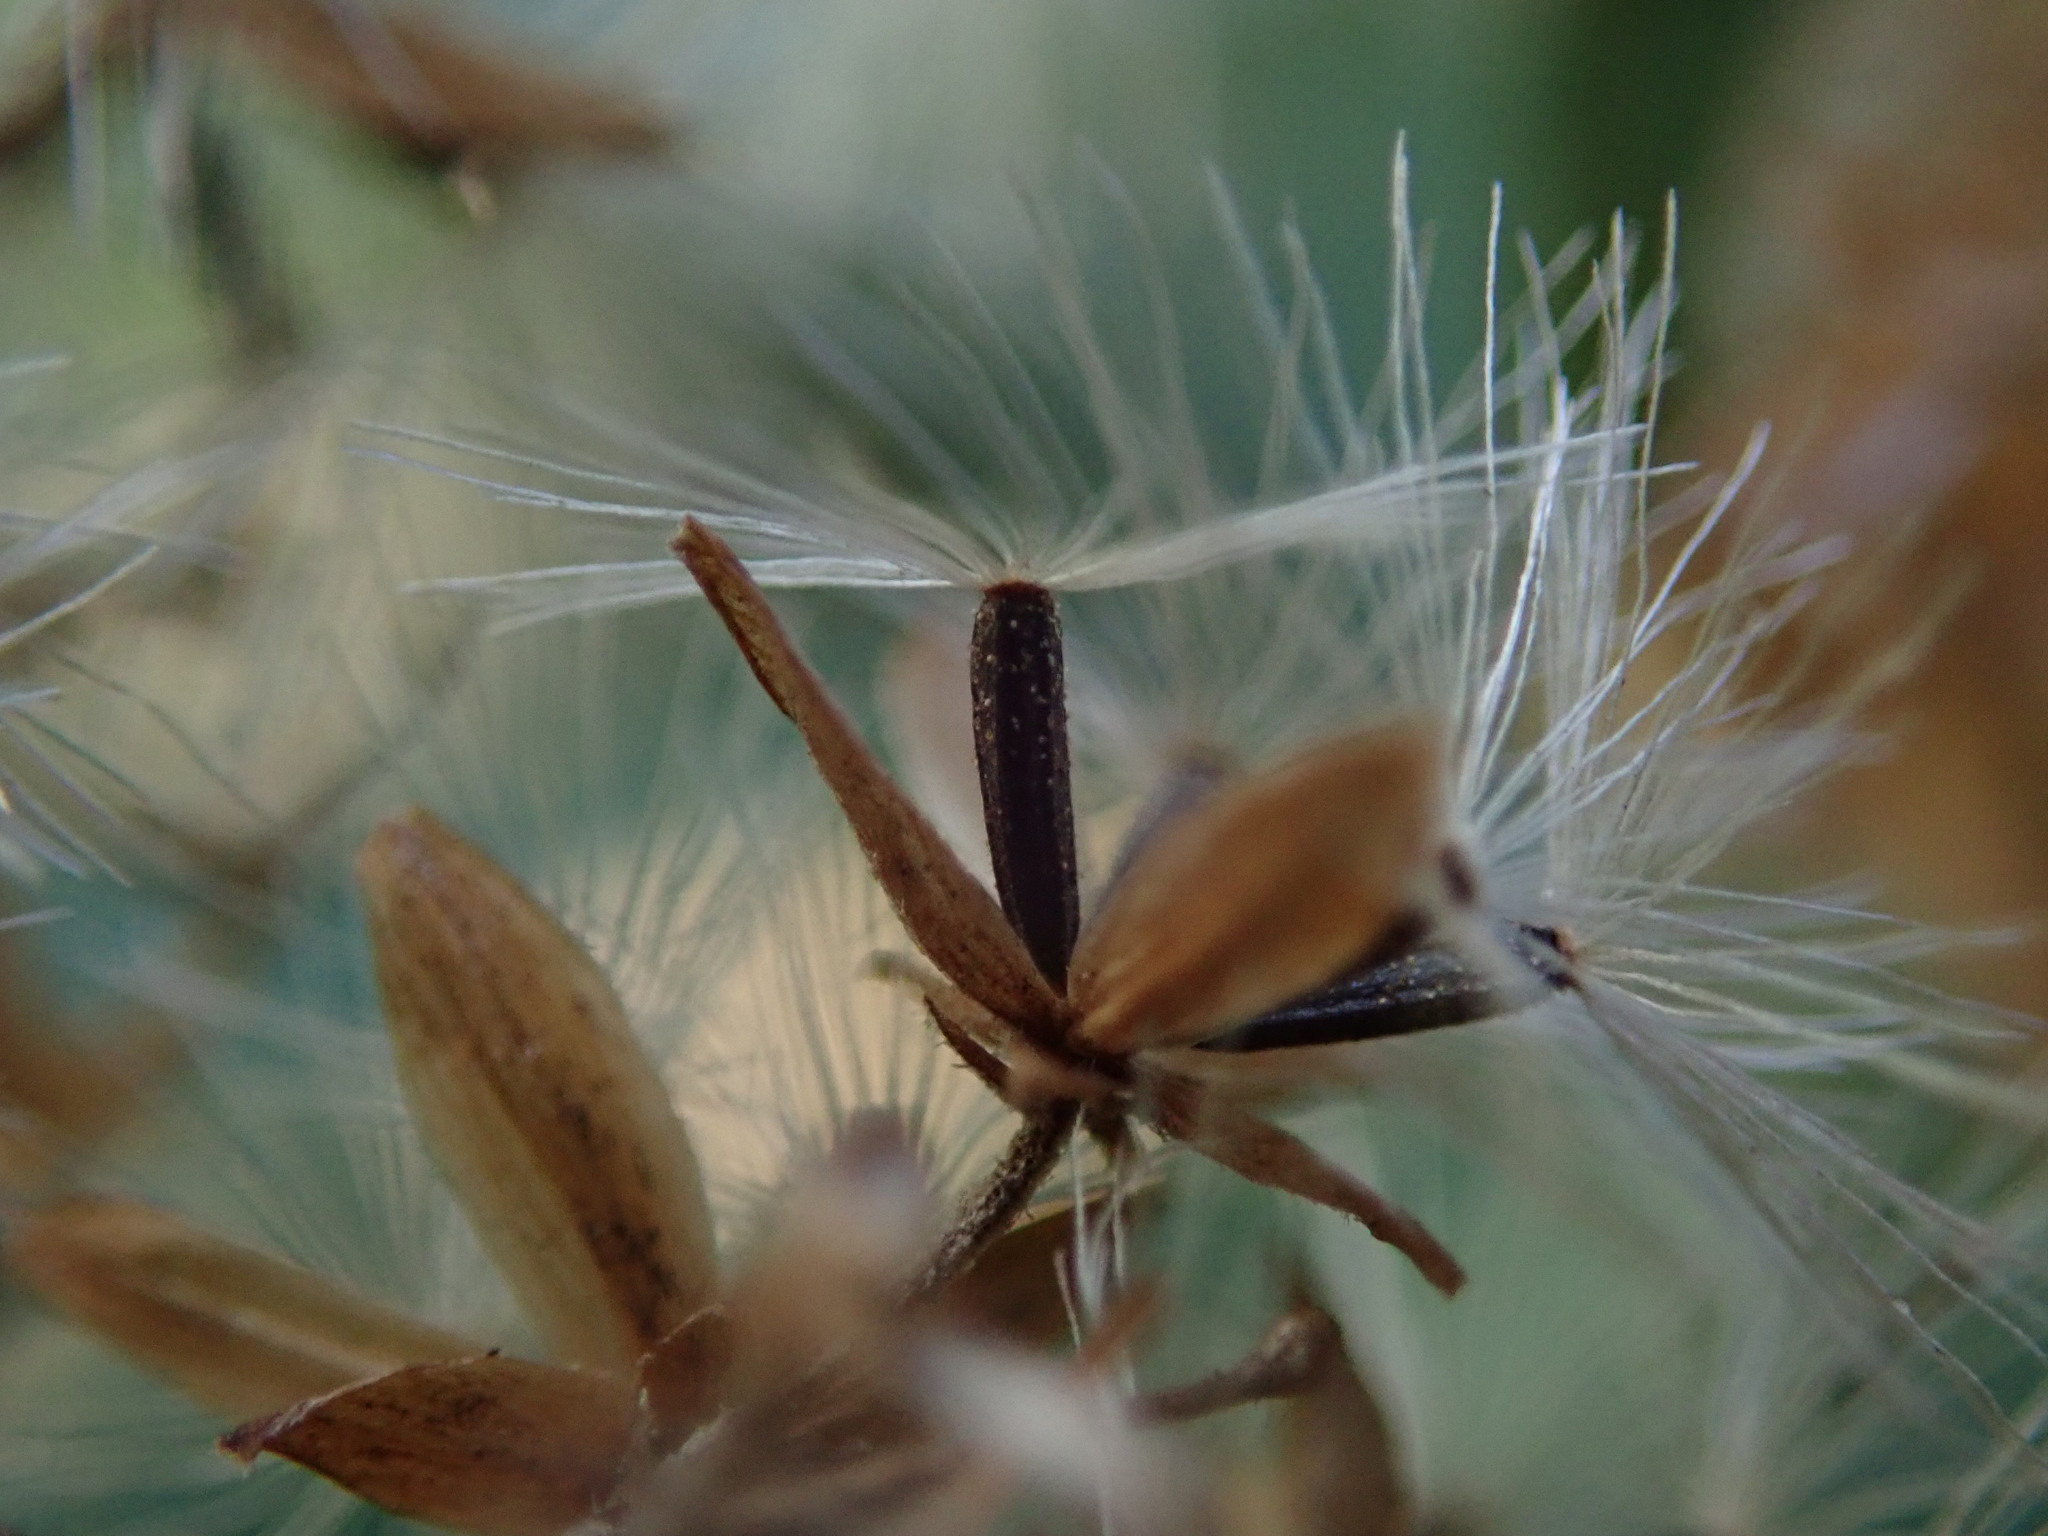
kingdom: Plantae
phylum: Tracheophyta
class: Magnoliopsida
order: Asterales
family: Asteraceae
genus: Eupatorium
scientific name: Eupatorium cannabinum
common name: Hemp-agrimony
